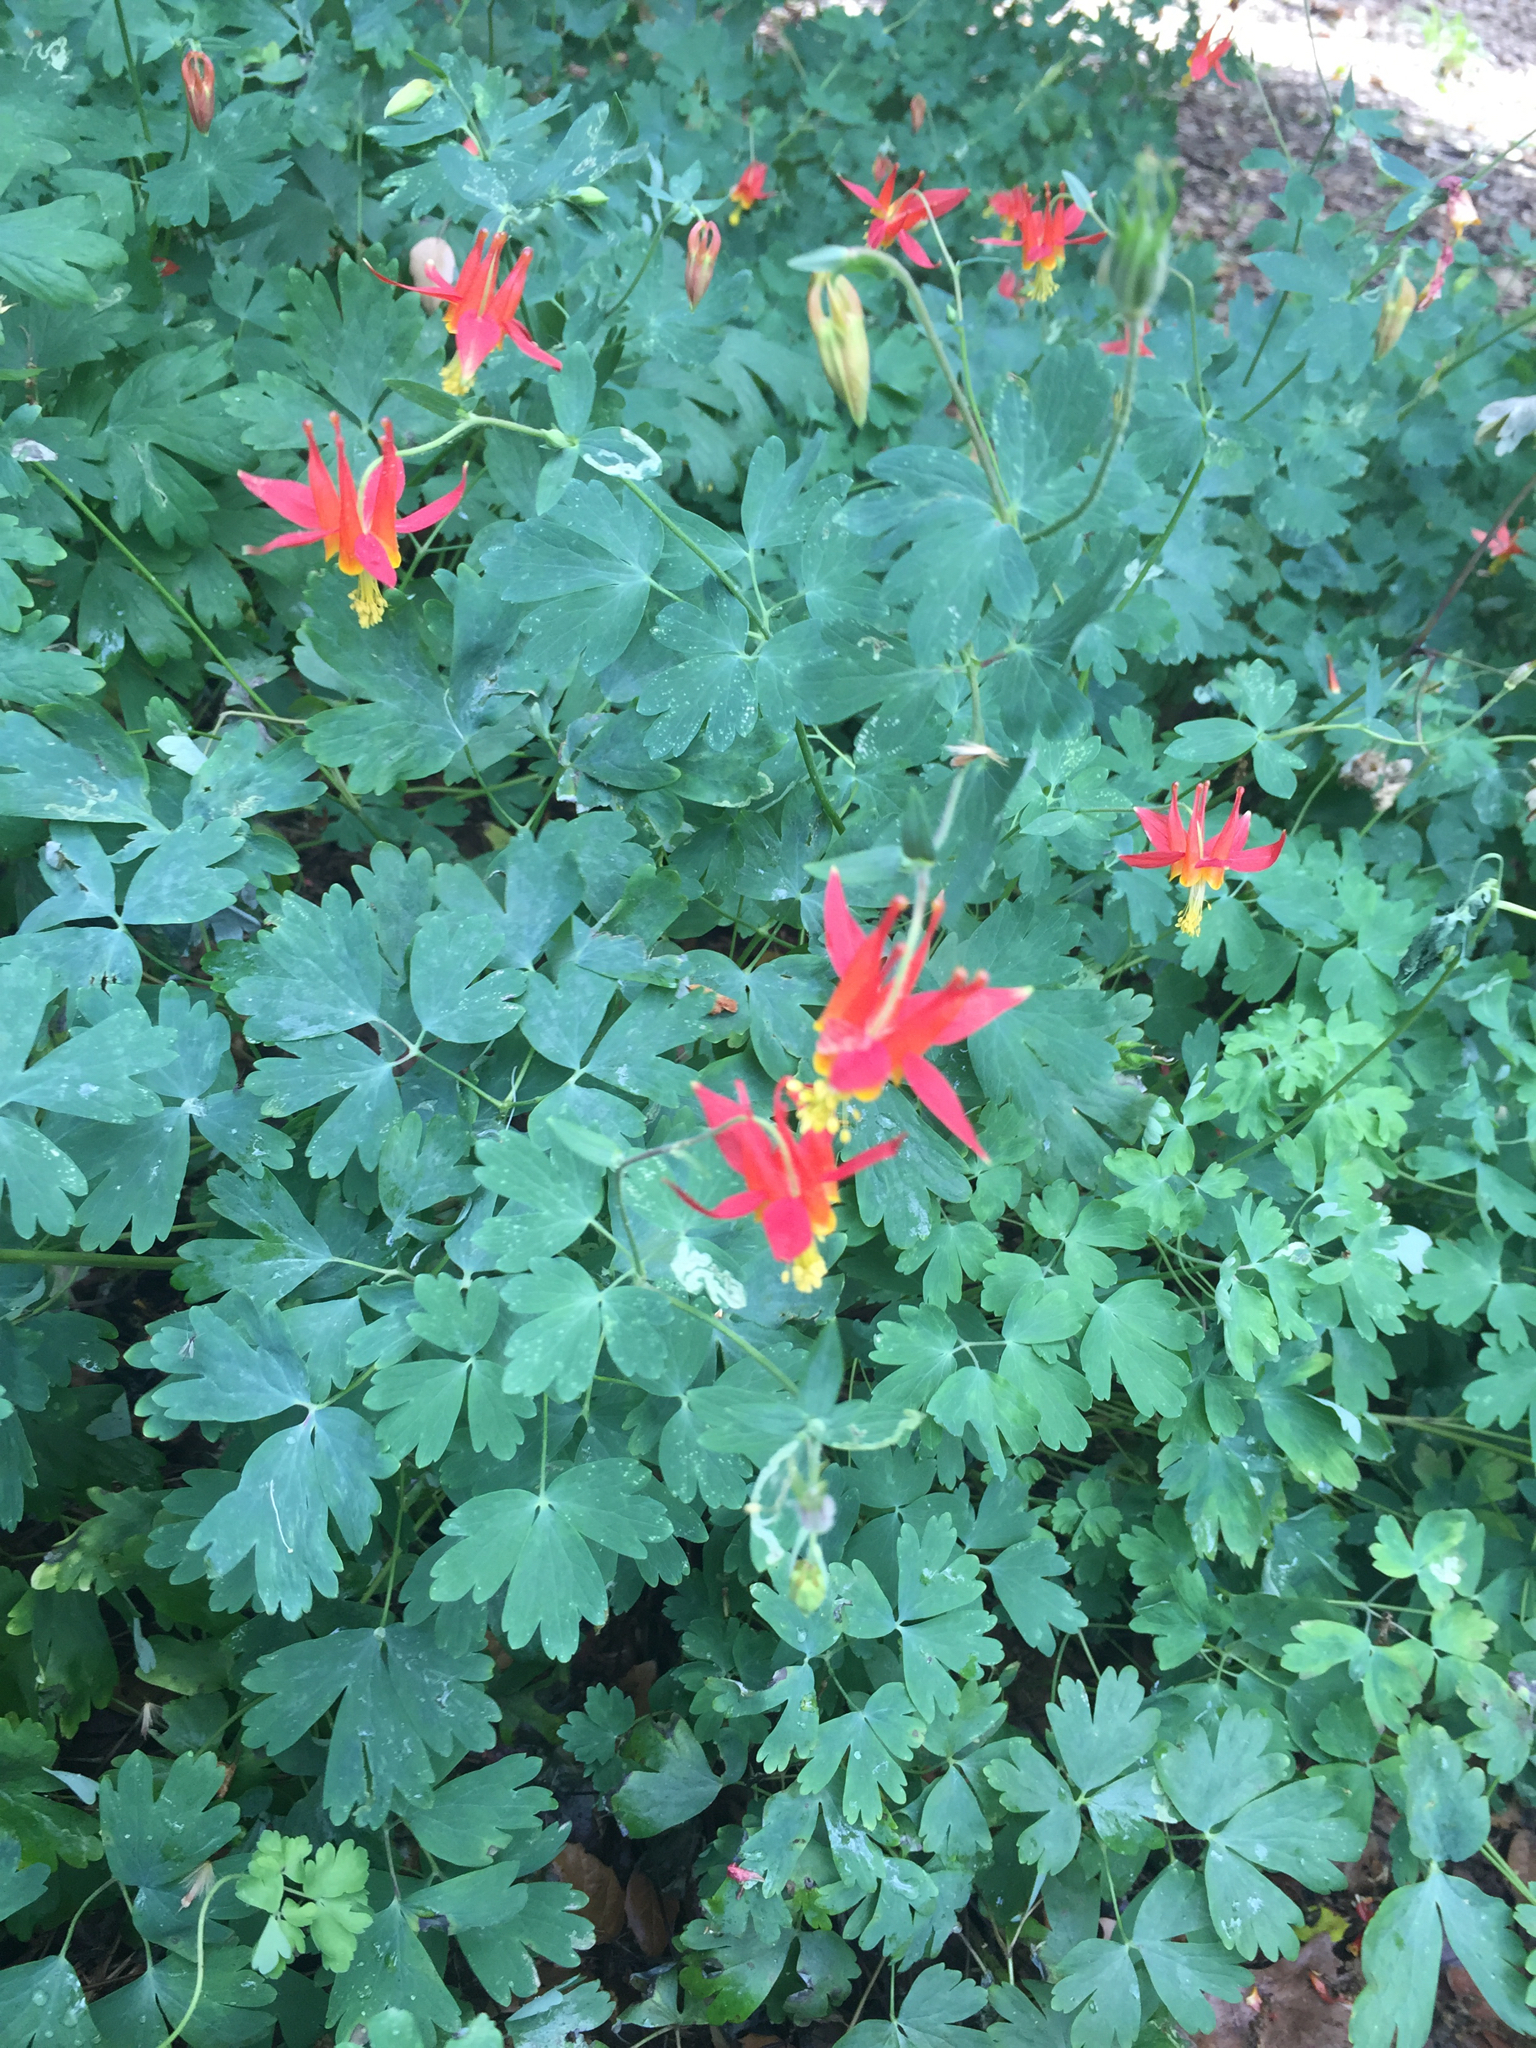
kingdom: Plantae
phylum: Tracheophyta
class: Magnoliopsida
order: Ranunculales
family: Ranunculaceae
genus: Aquilegia
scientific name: Aquilegia formosa
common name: Sitka columbine
